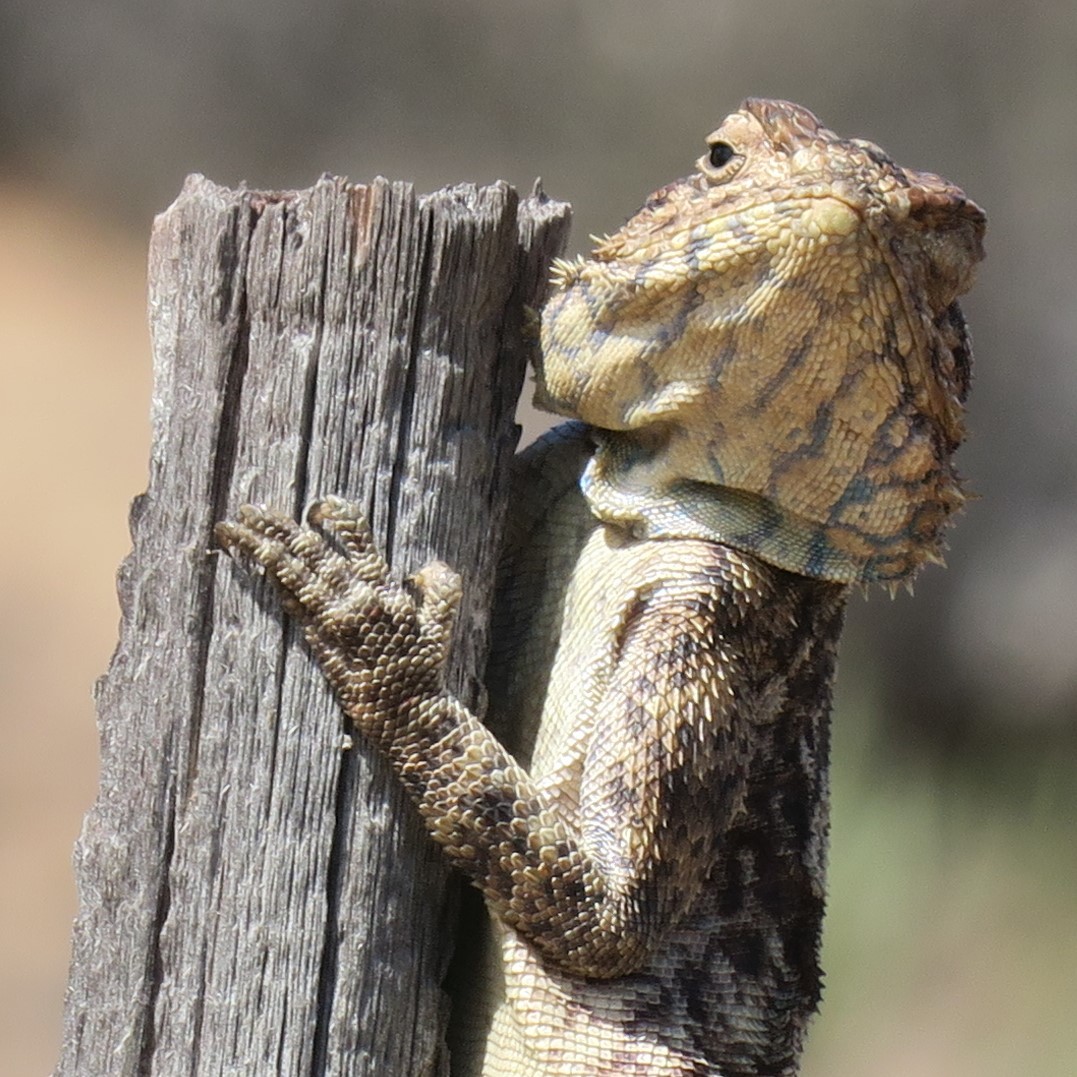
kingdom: Animalia
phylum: Chordata
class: Squamata
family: Agamidae
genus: Agama
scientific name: Agama atra
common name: Southern african rock agama
